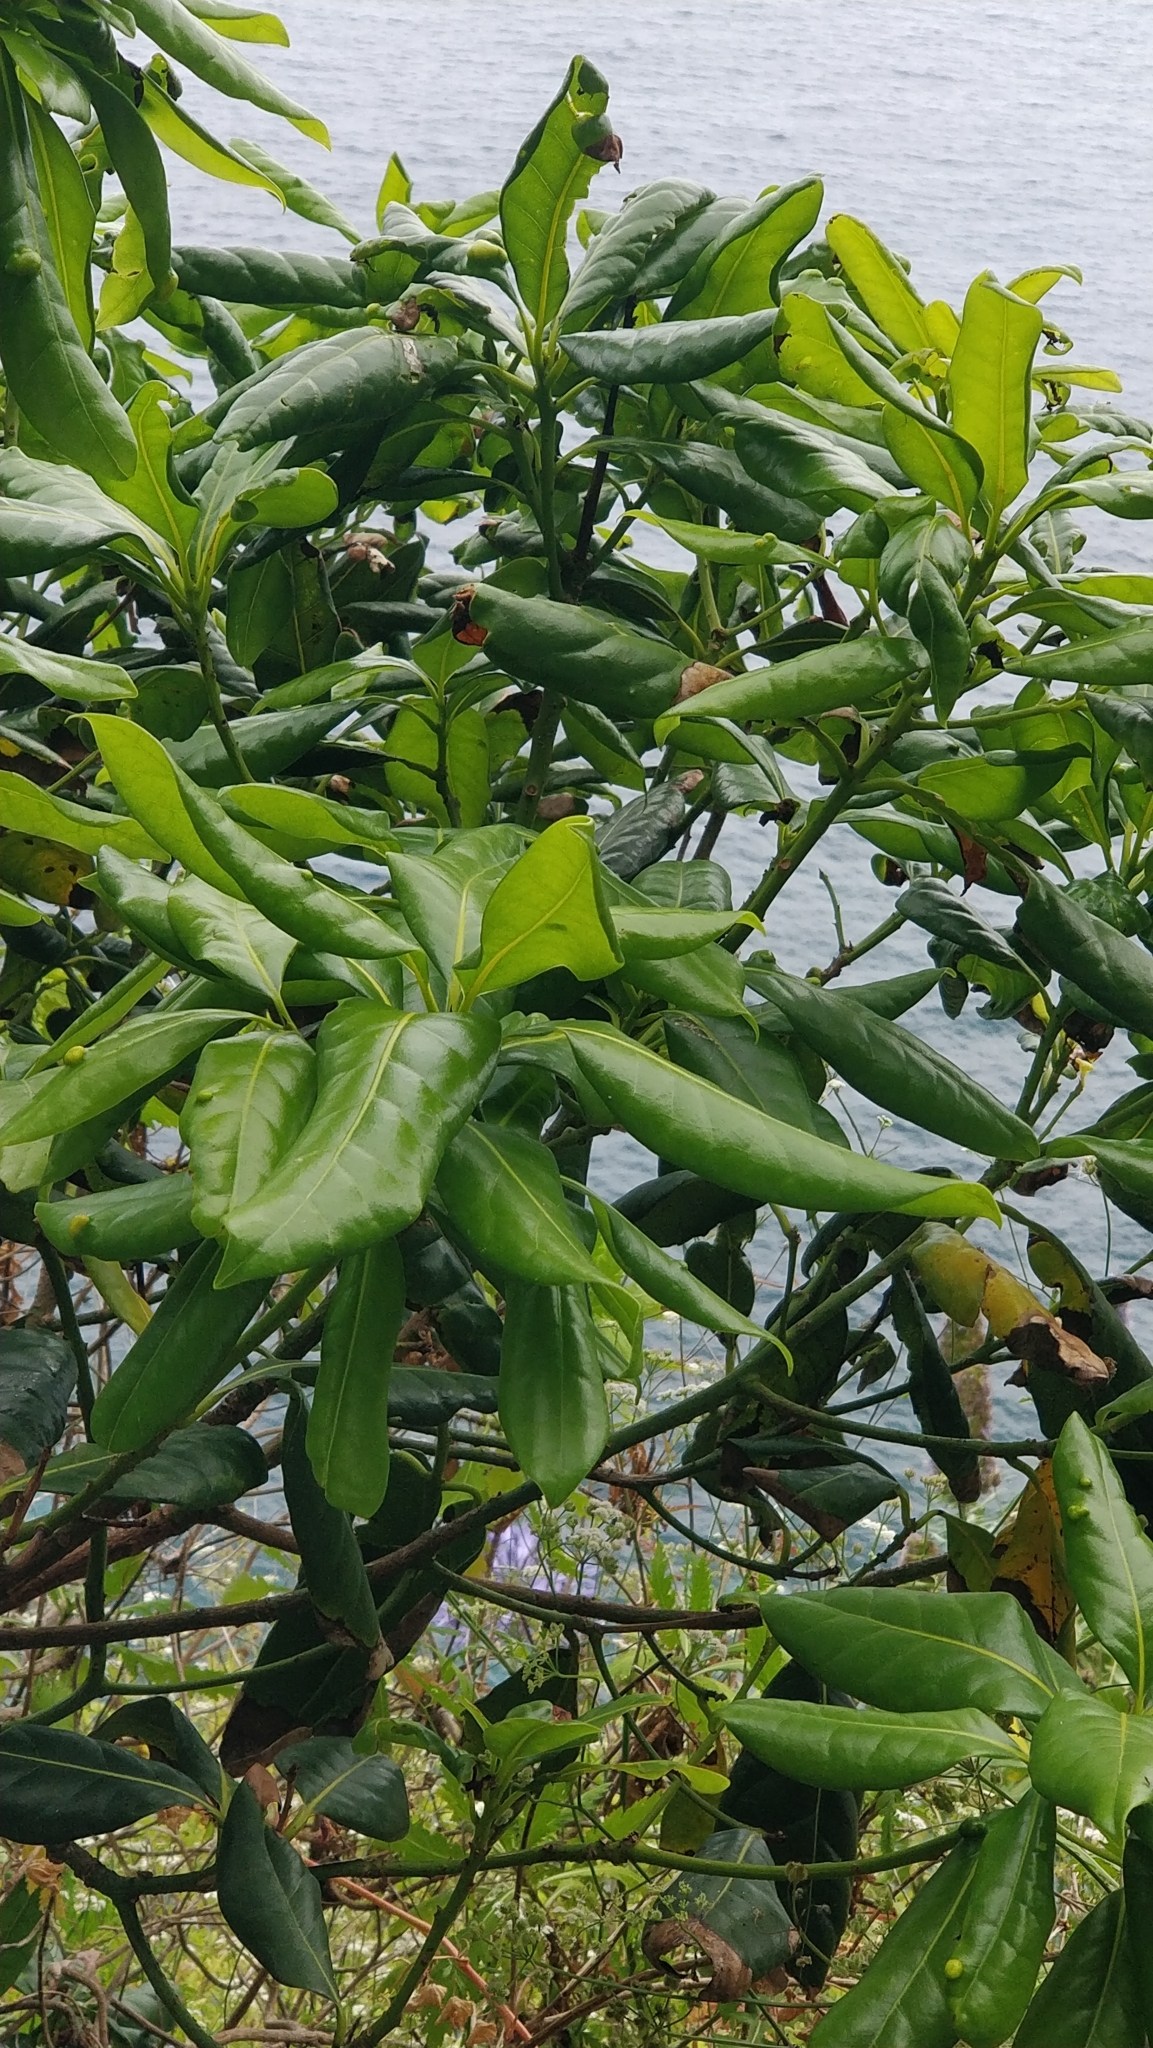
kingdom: Plantae
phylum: Tracheophyta
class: Magnoliopsida
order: Laurales
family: Lauraceae
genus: Apollonias
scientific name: Apollonias barbujana
